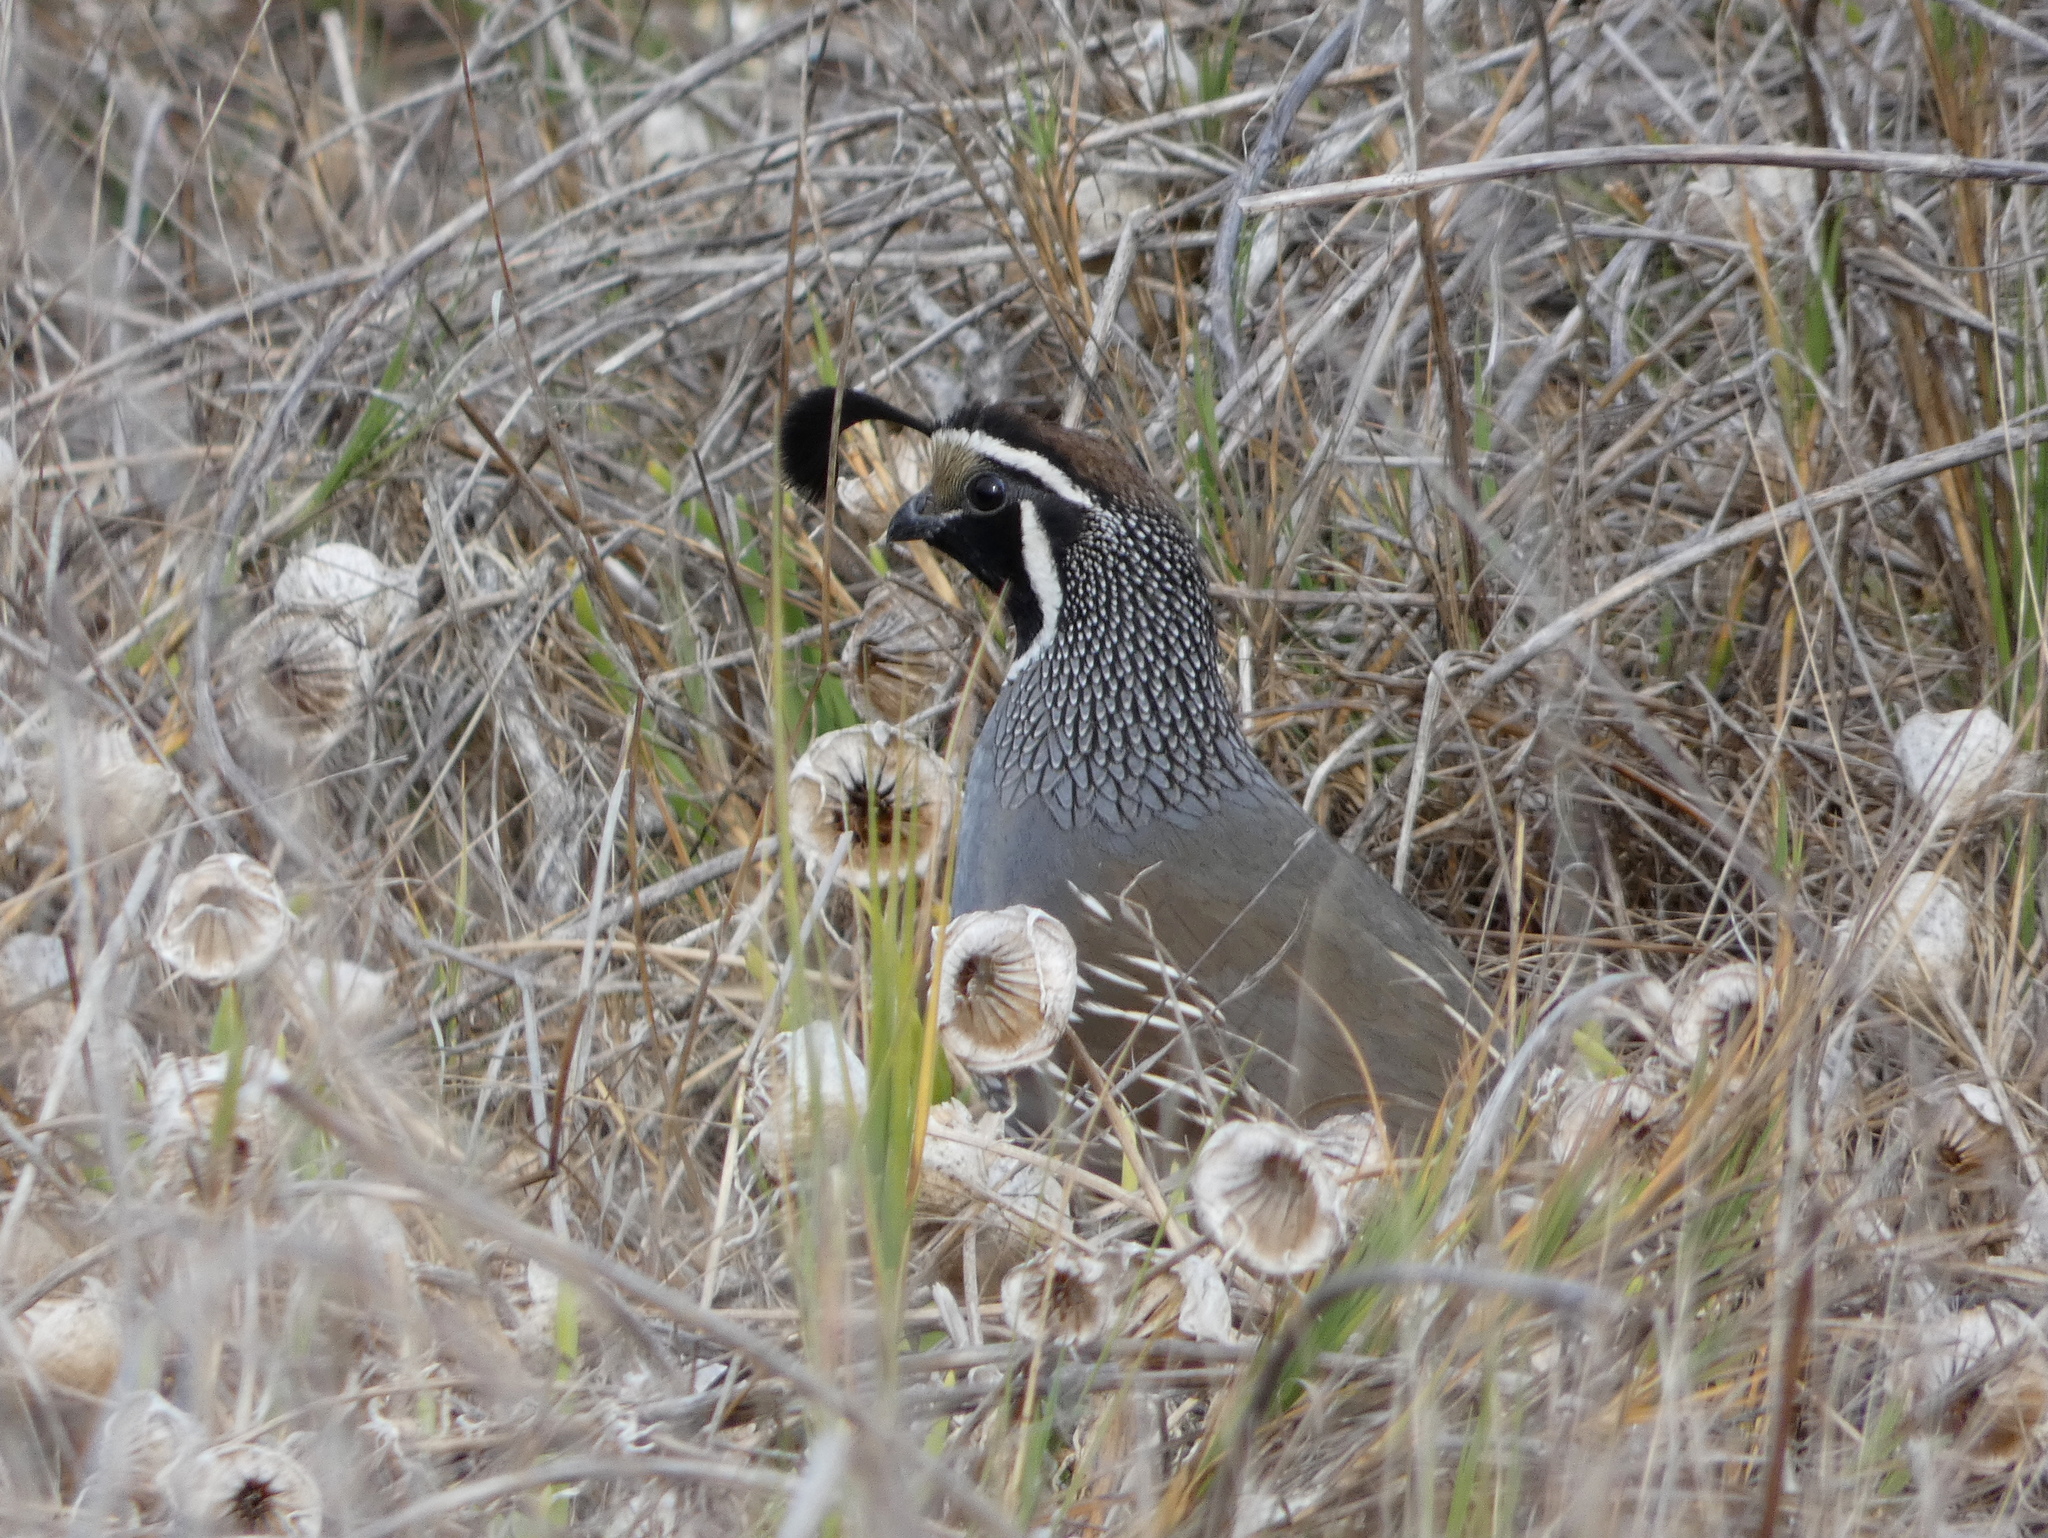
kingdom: Animalia
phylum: Chordata
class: Aves
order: Galliformes
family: Odontophoridae
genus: Callipepla
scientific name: Callipepla californica
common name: California quail
